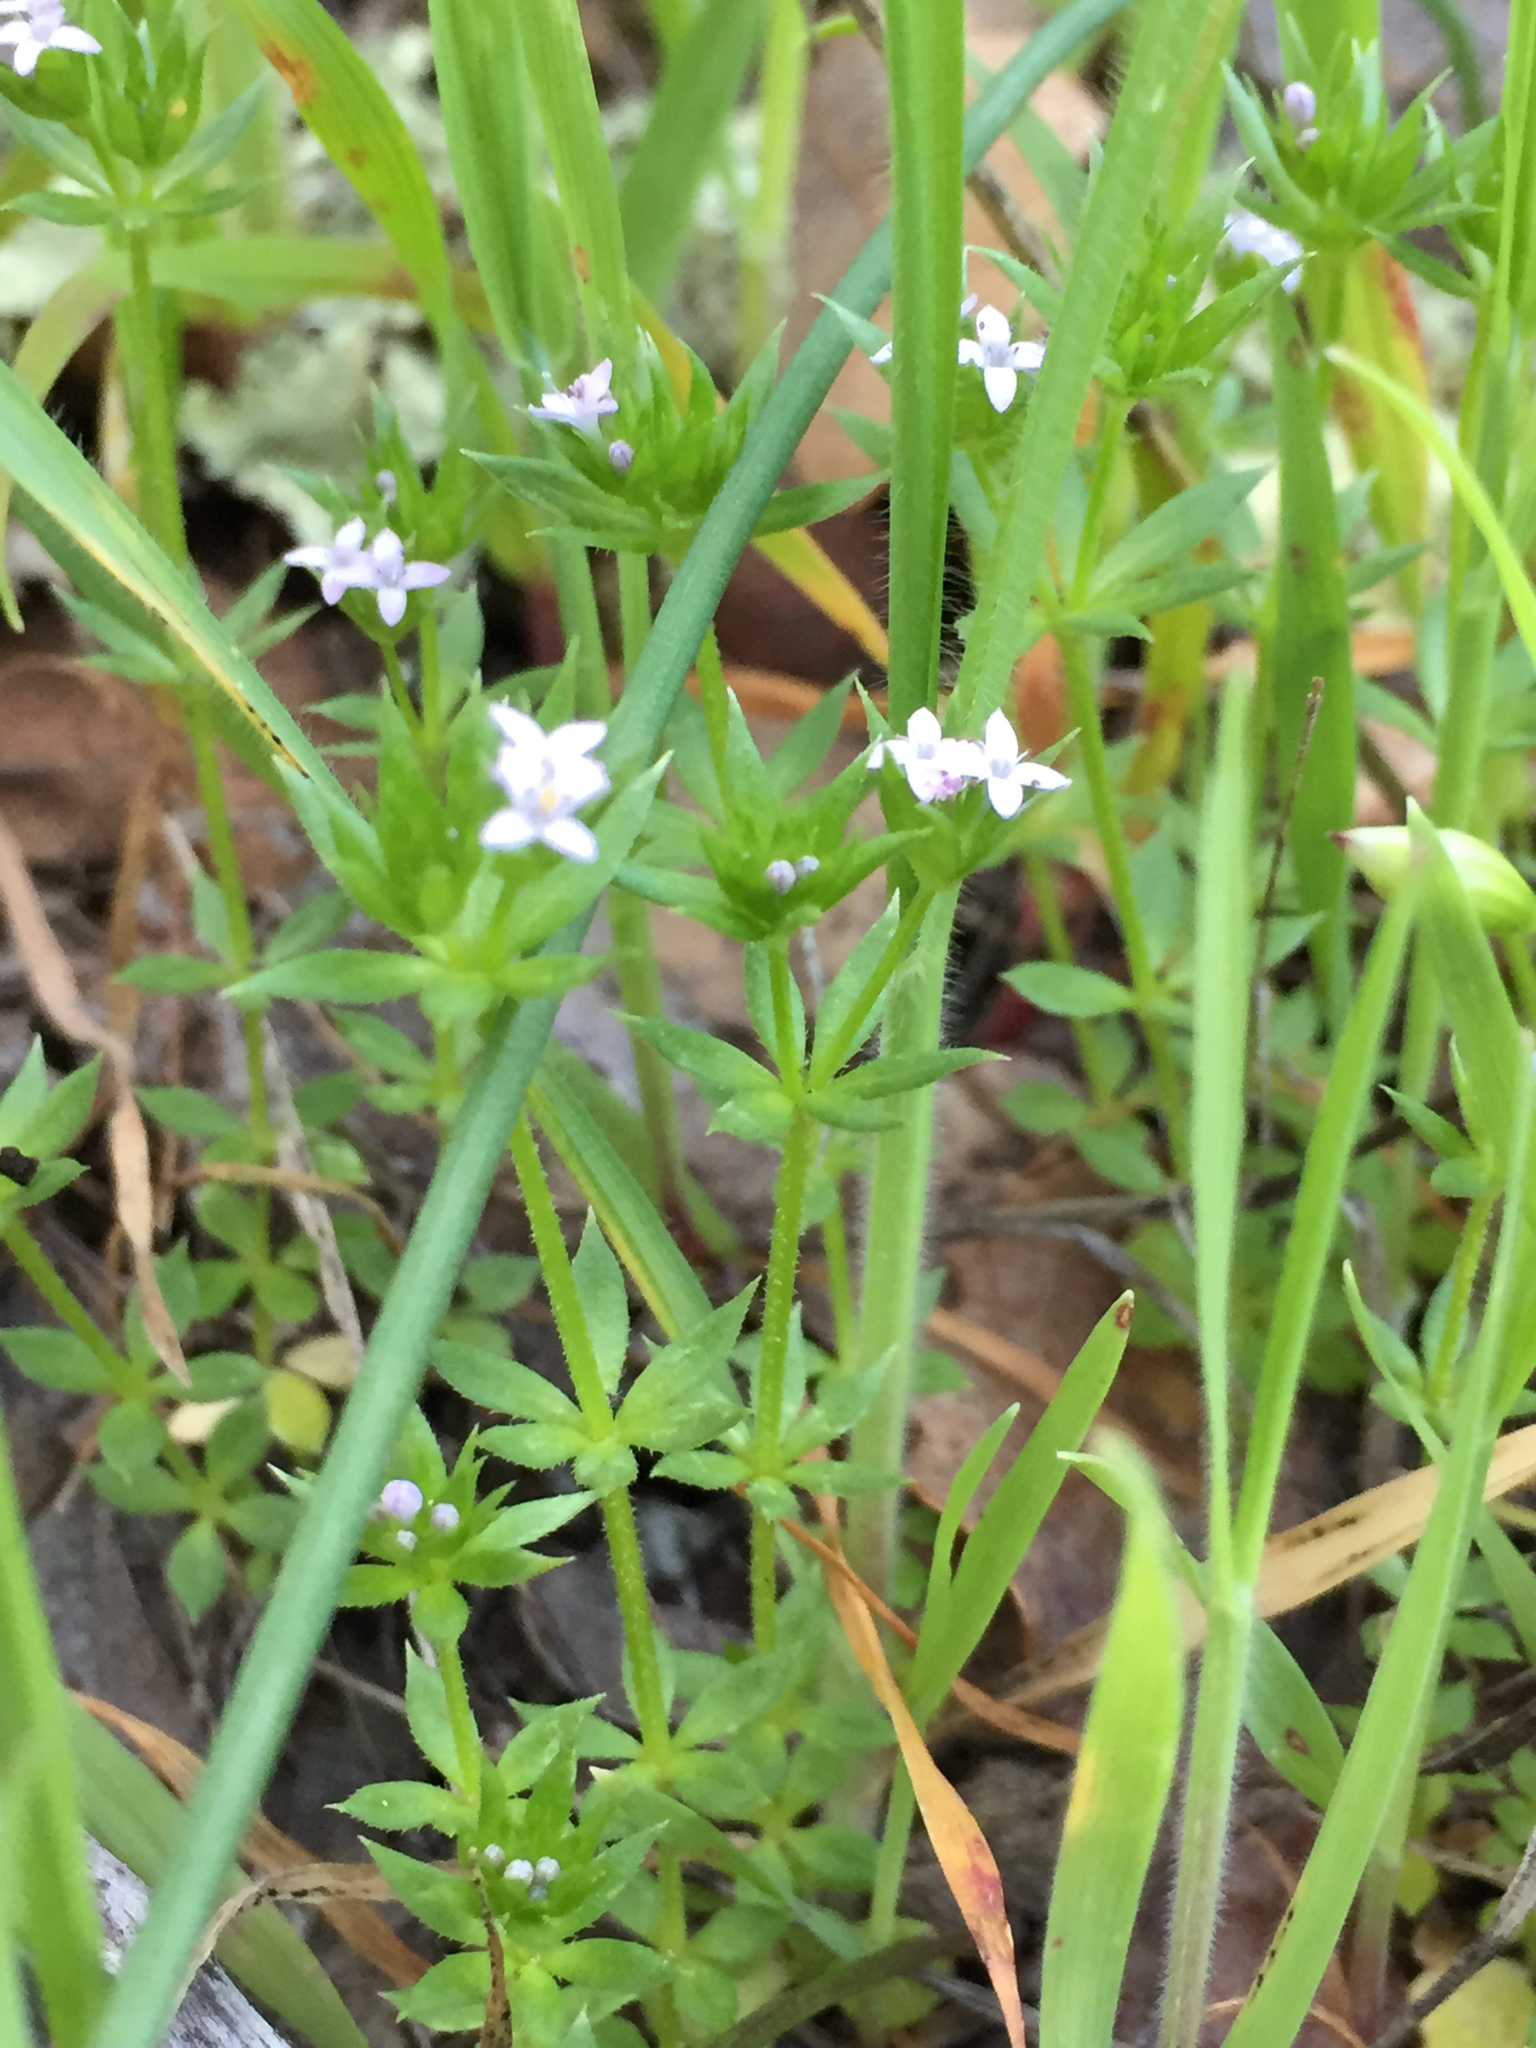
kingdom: Plantae
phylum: Tracheophyta
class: Magnoliopsida
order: Gentianales
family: Rubiaceae
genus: Sherardia
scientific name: Sherardia arvensis
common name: Field madder
